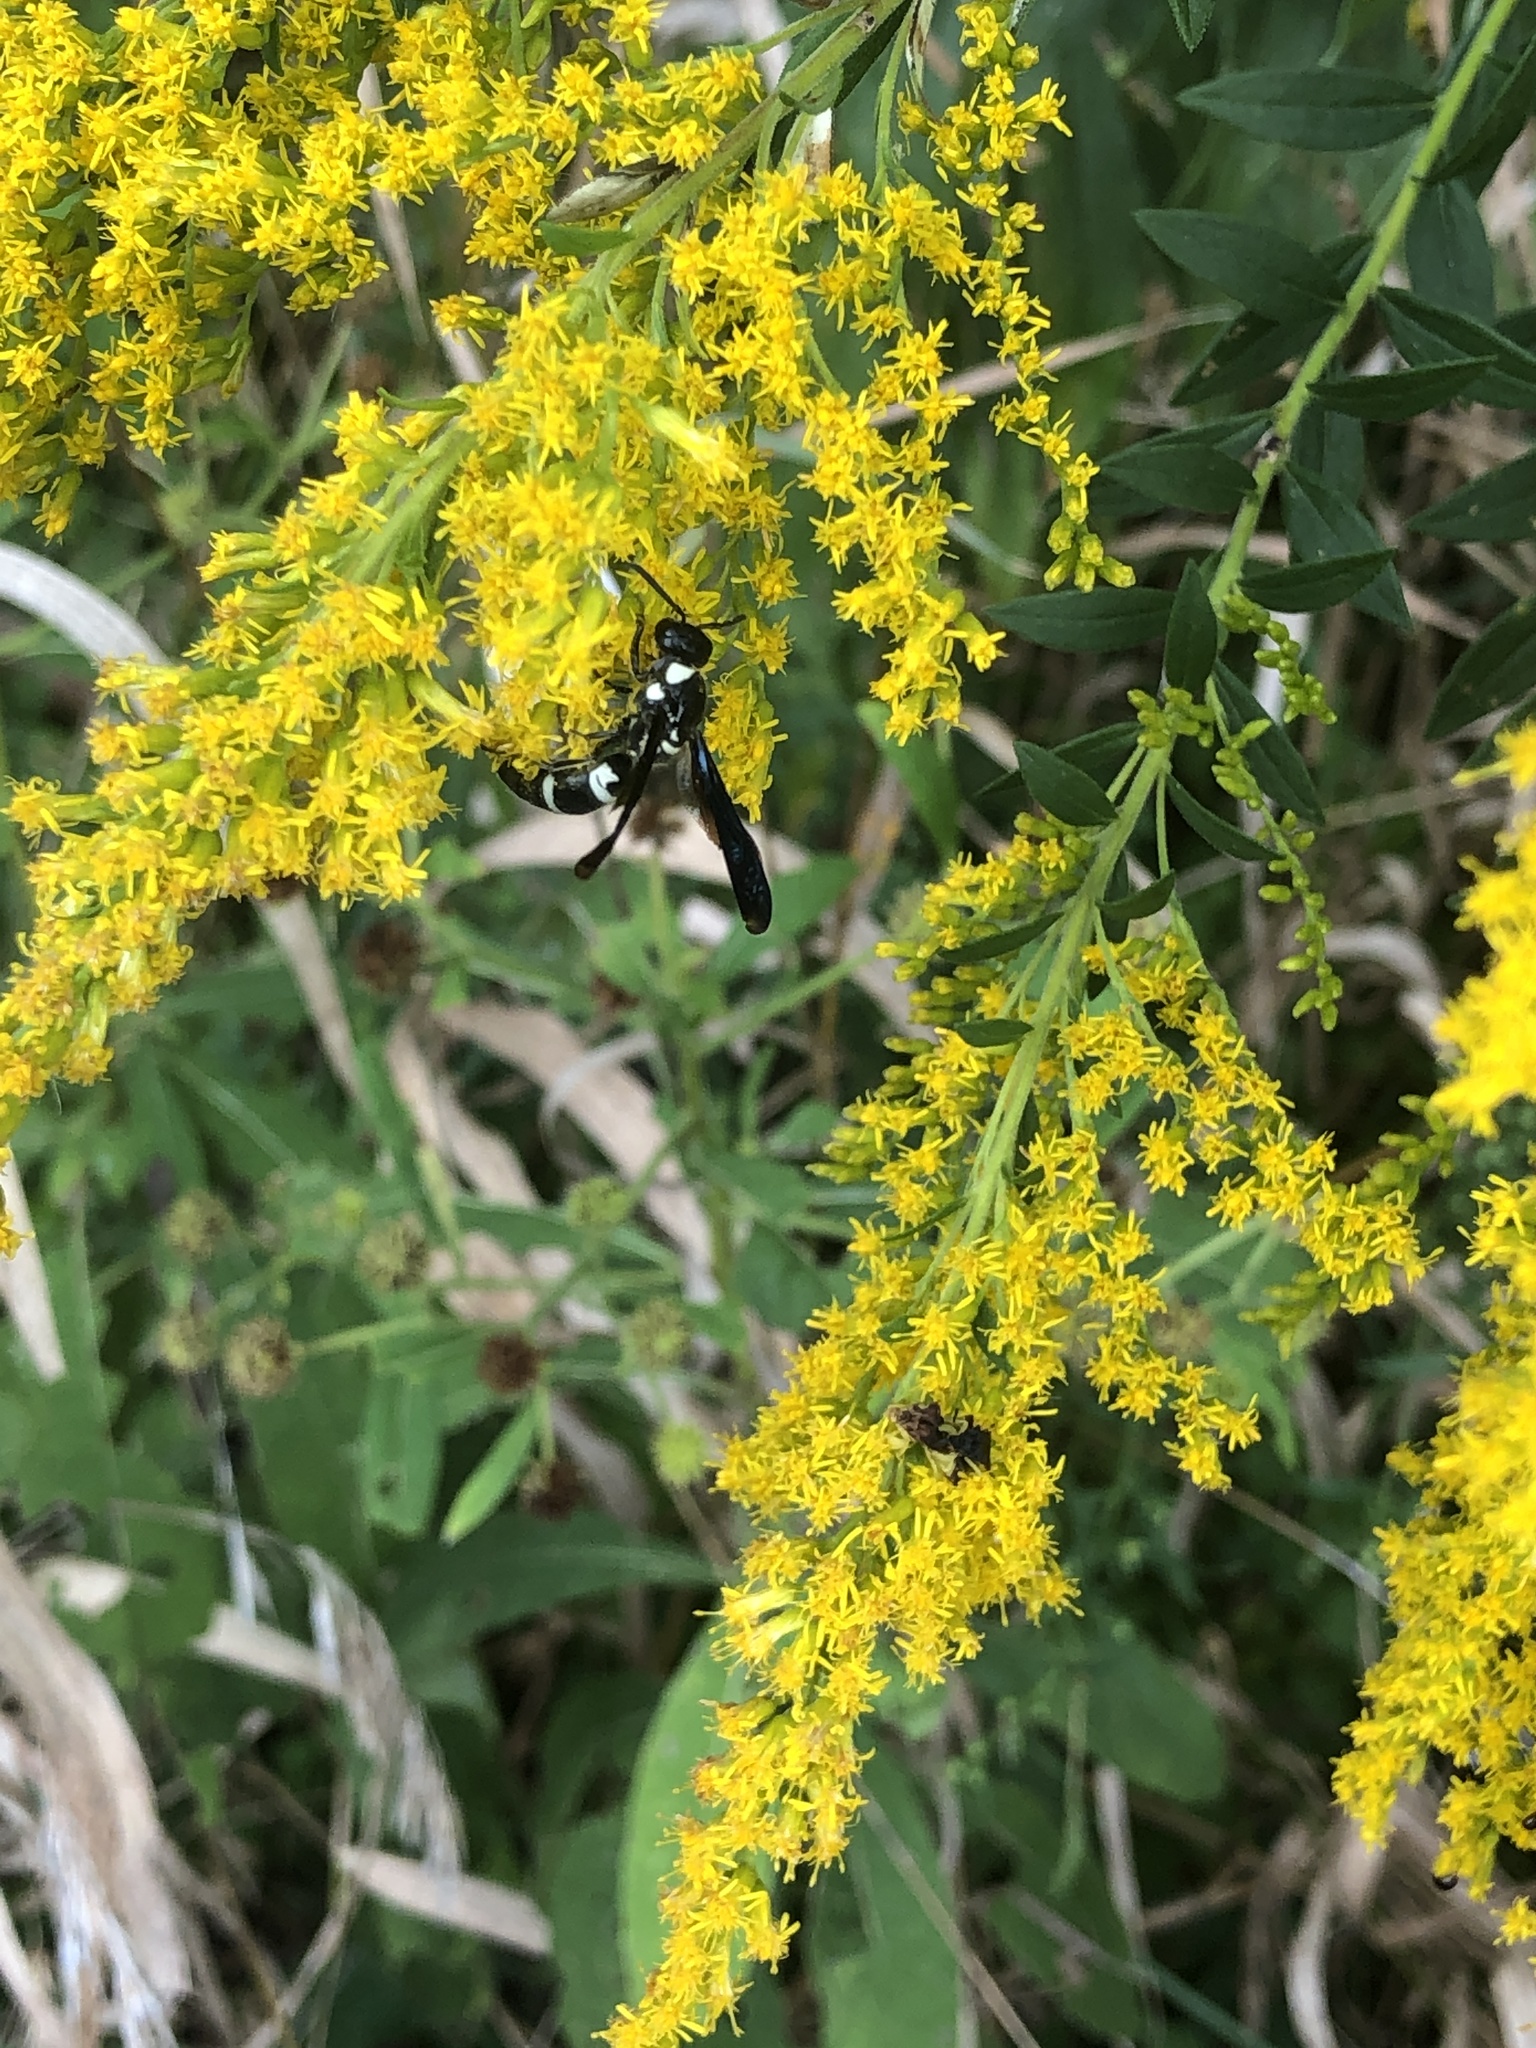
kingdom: Animalia
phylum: Arthropoda
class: Insecta
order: Hymenoptera
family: Eumenidae
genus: Pseudodynerus
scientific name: Pseudodynerus quadrisectus
